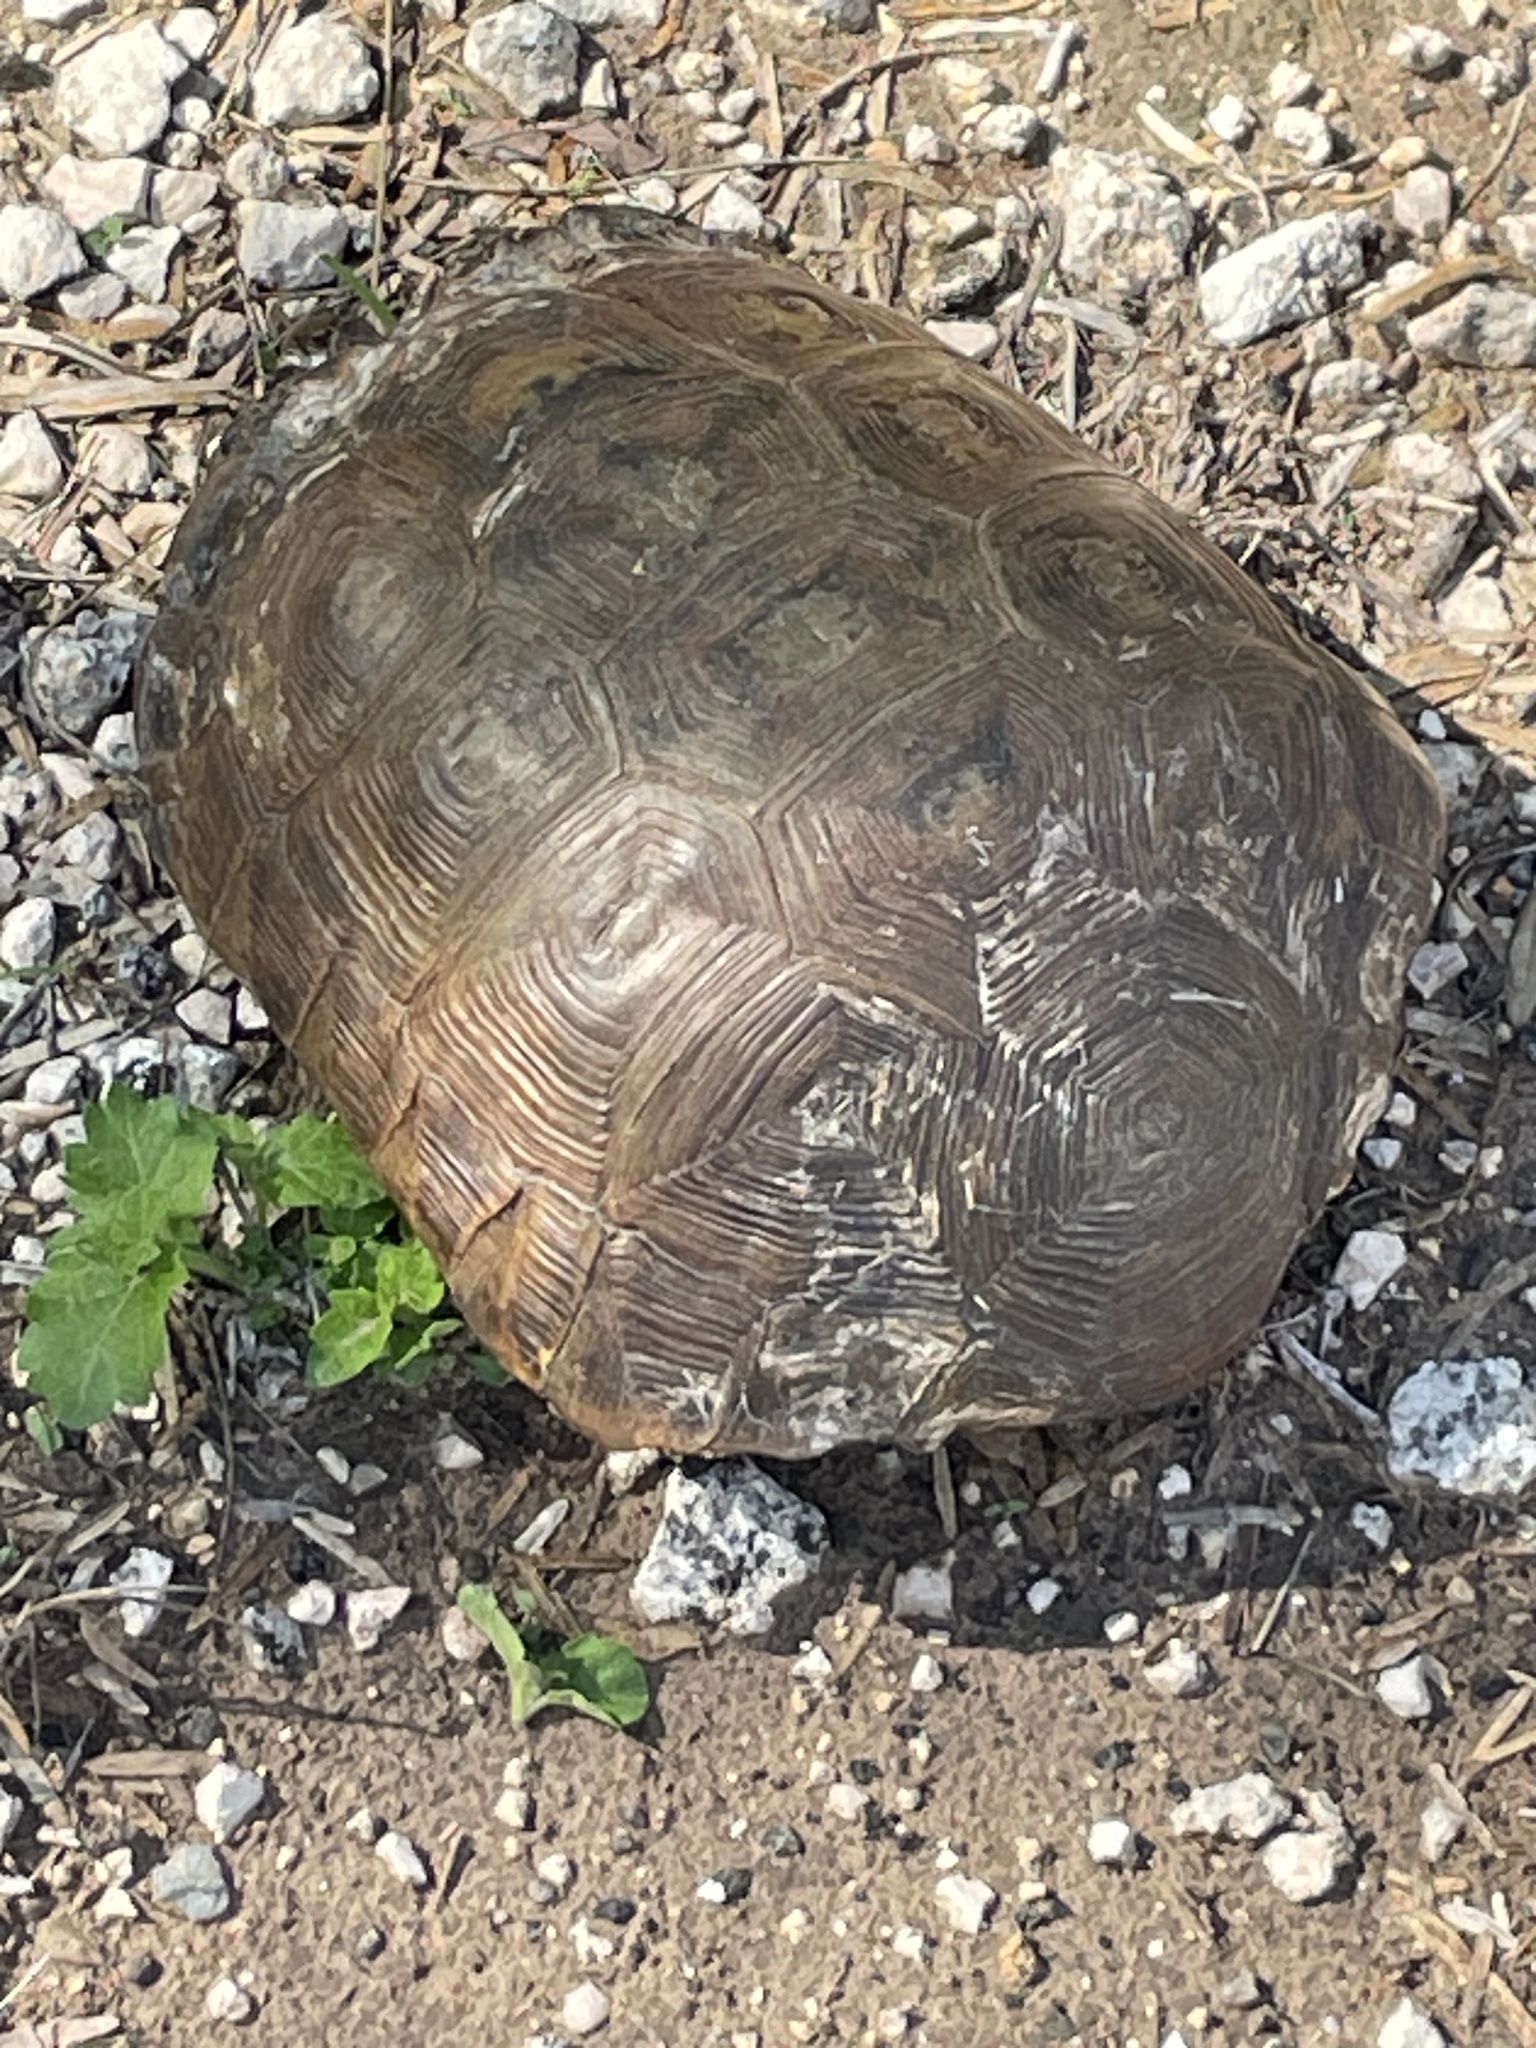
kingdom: Animalia
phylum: Chordata
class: Testudines
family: Testudinidae
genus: Gopherus
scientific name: Gopherus berlandieri
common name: Texas (gopher )tortoise
